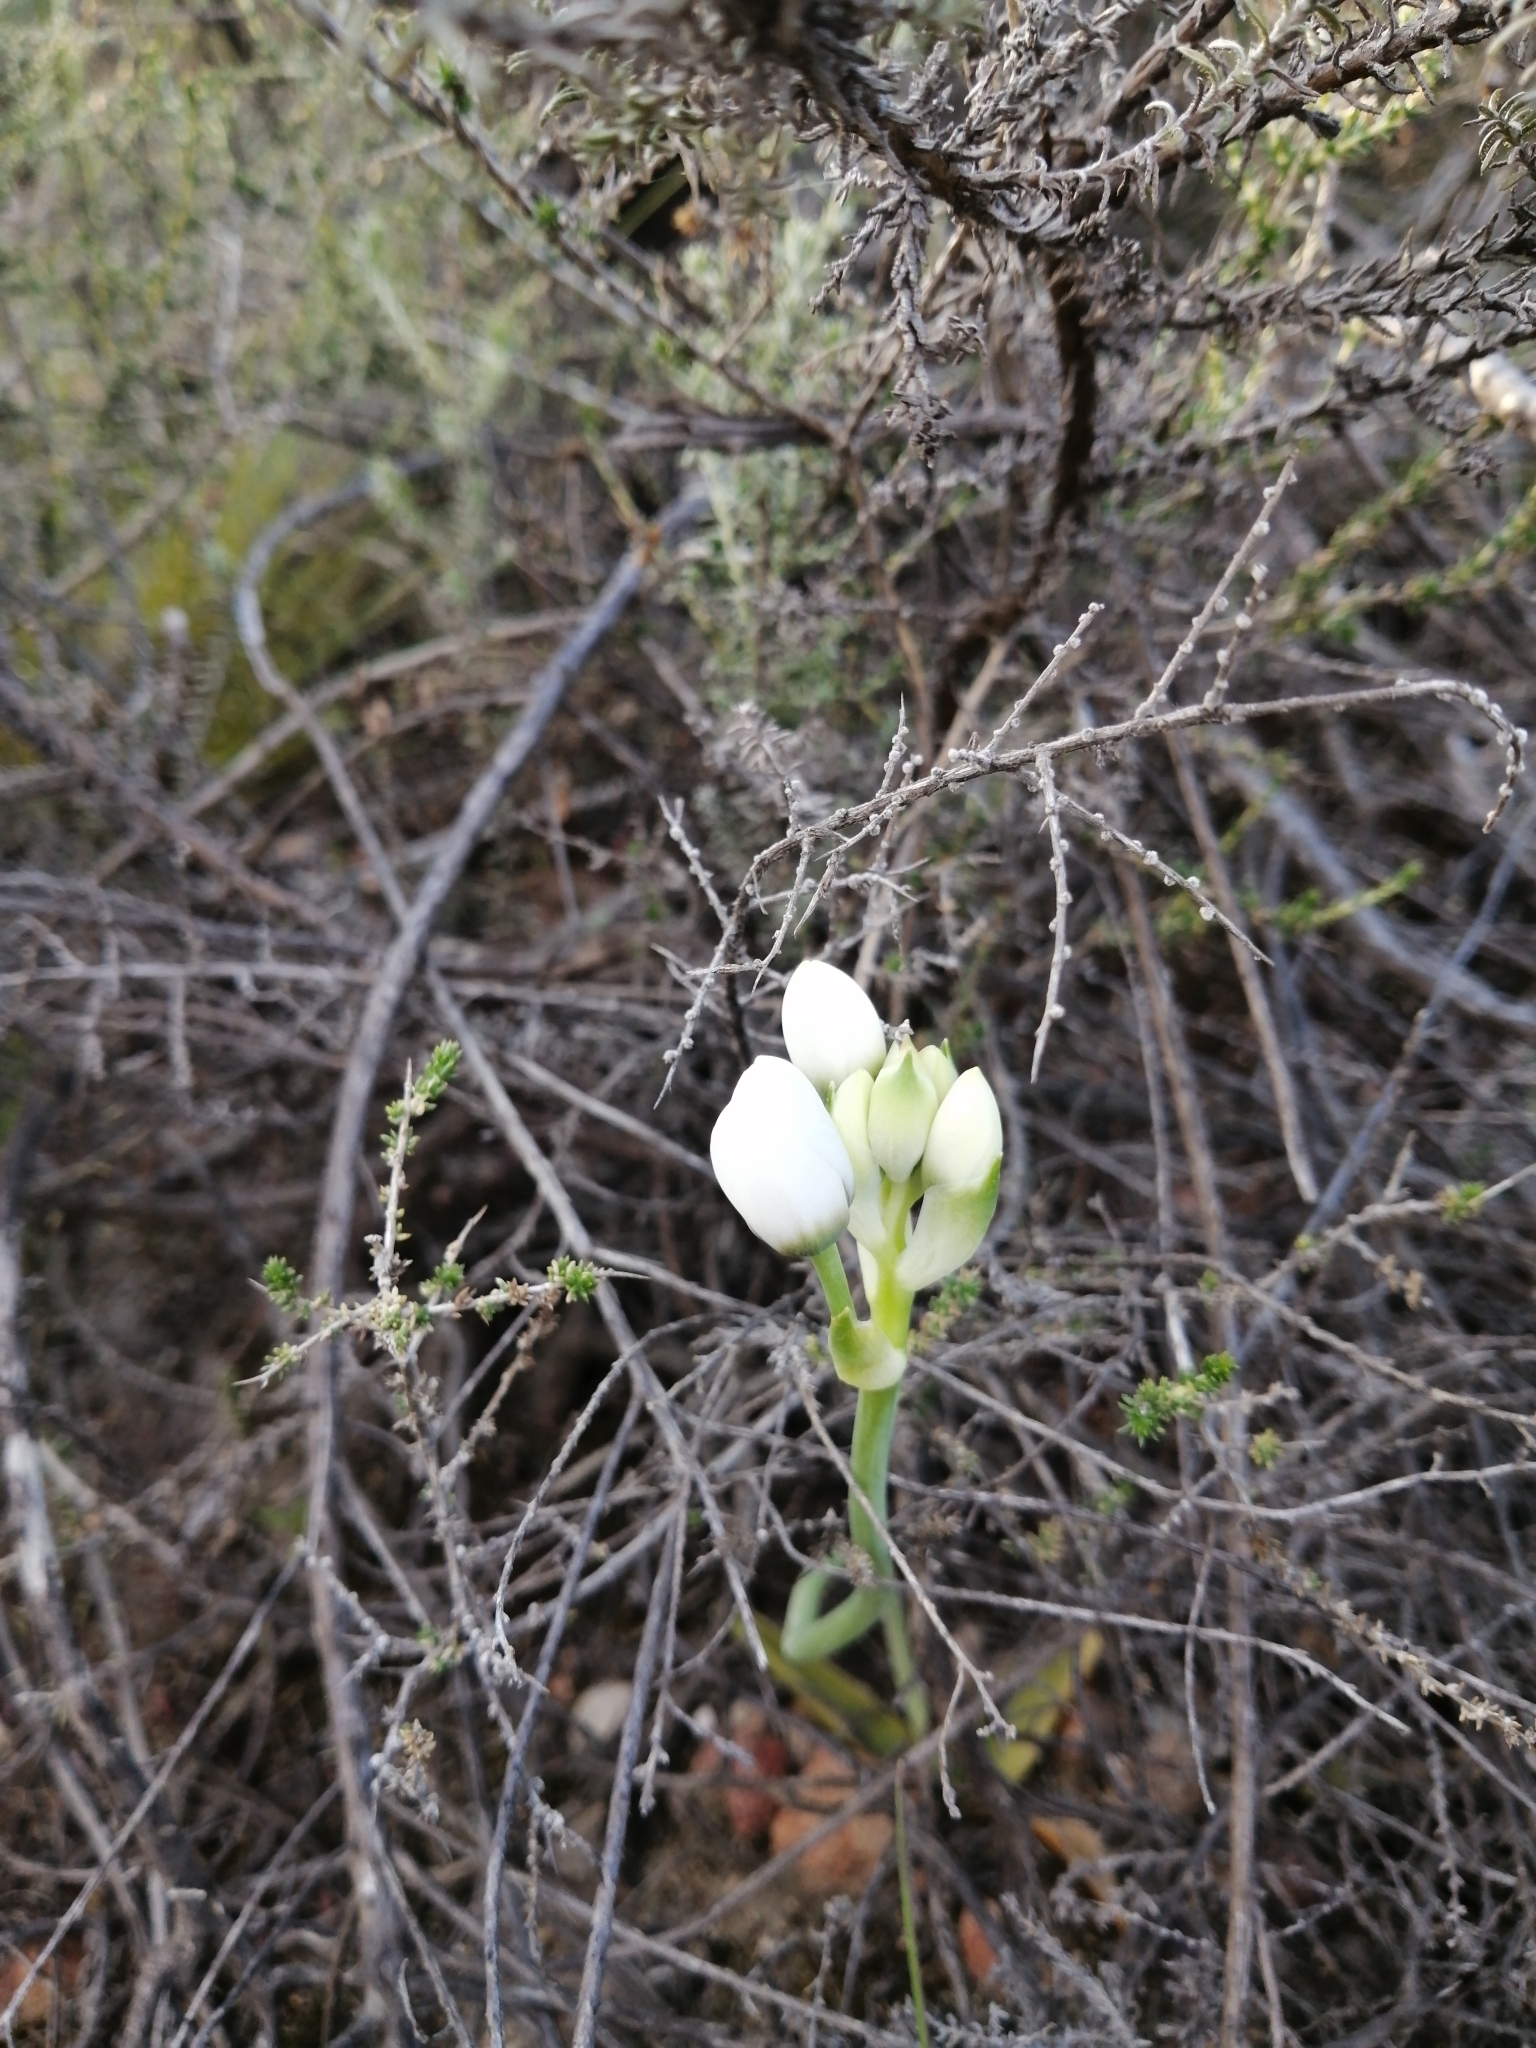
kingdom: Plantae
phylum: Tracheophyta
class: Liliopsida
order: Asparagales
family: Asparagaceae
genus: Ornithogalum
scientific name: Ornithogalum thyrsoides
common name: Chincherinchee
